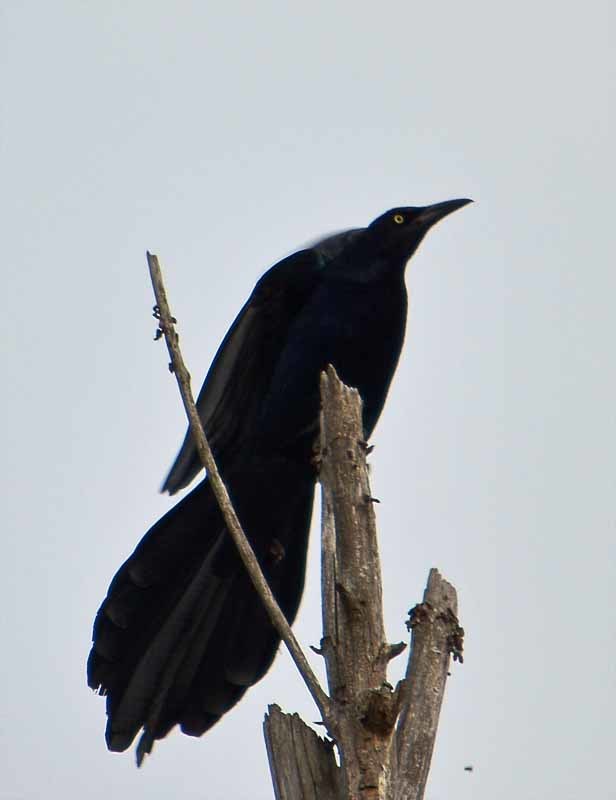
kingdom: Animalia
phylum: Chordata
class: Aves
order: Passeriformes
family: Icteridae
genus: Quiscalus
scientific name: Quiscalus mexicanus
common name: Great-tailed grackle
